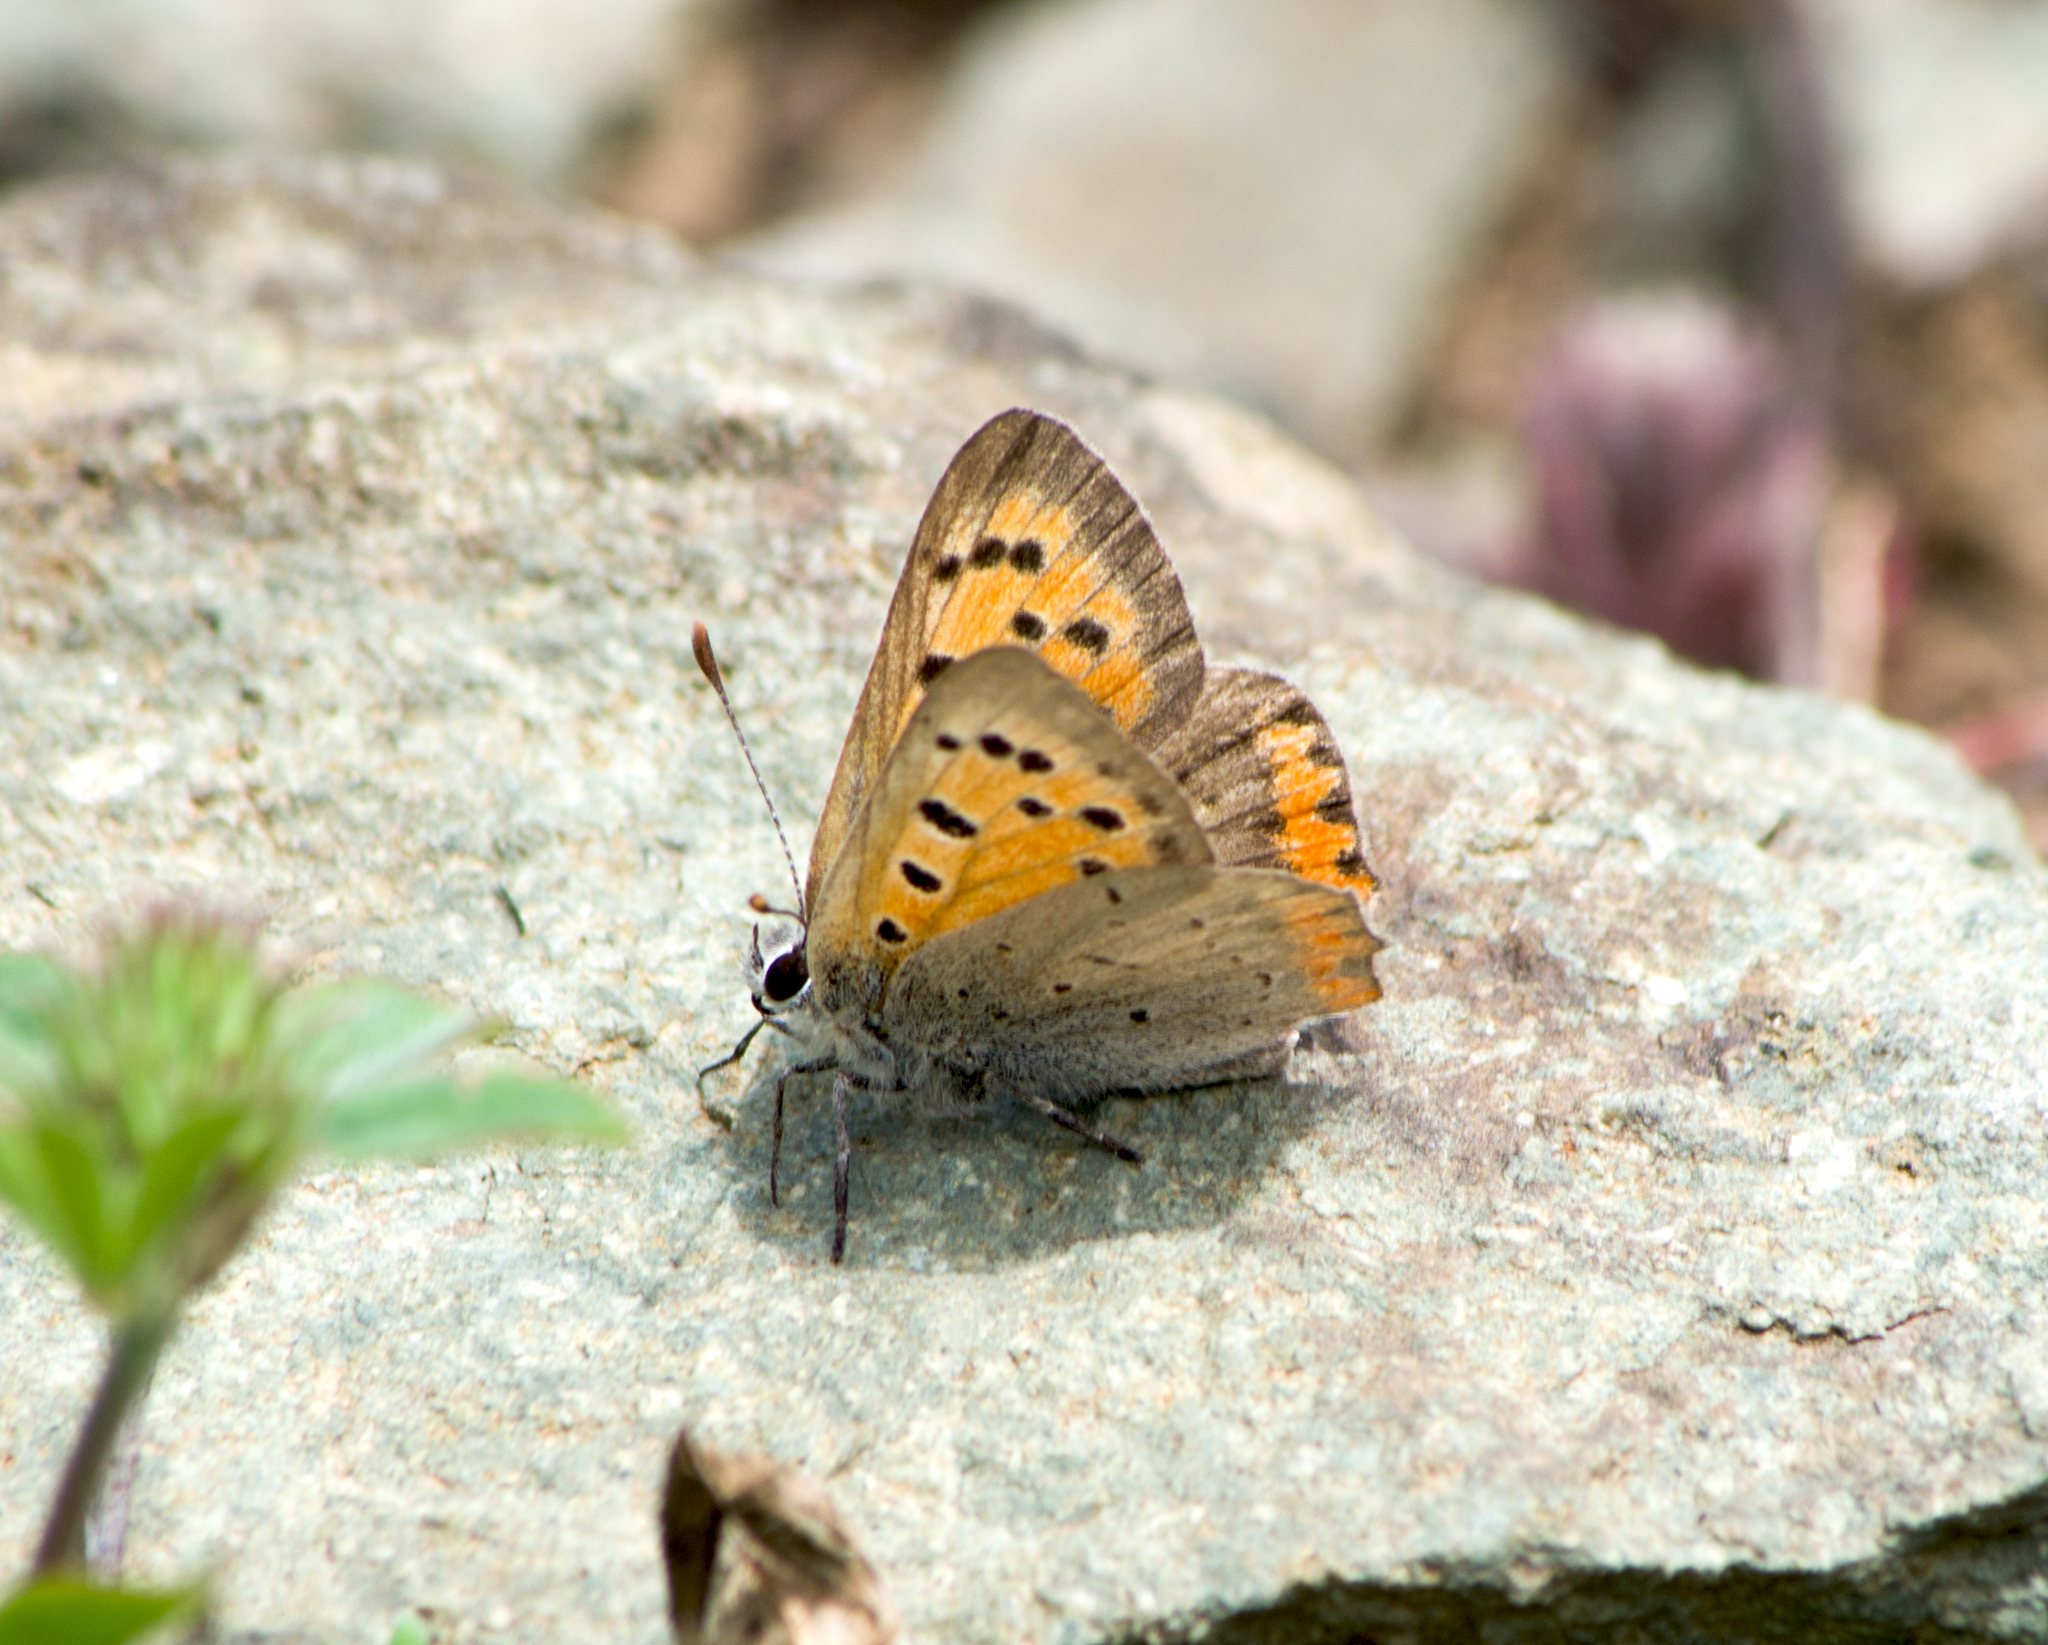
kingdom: Animalia
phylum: Arthropoda
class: Insecta
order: Lepidoptera
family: Lycaenidae
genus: Lycaena
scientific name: Lycaena phlaeas
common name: Small copper
